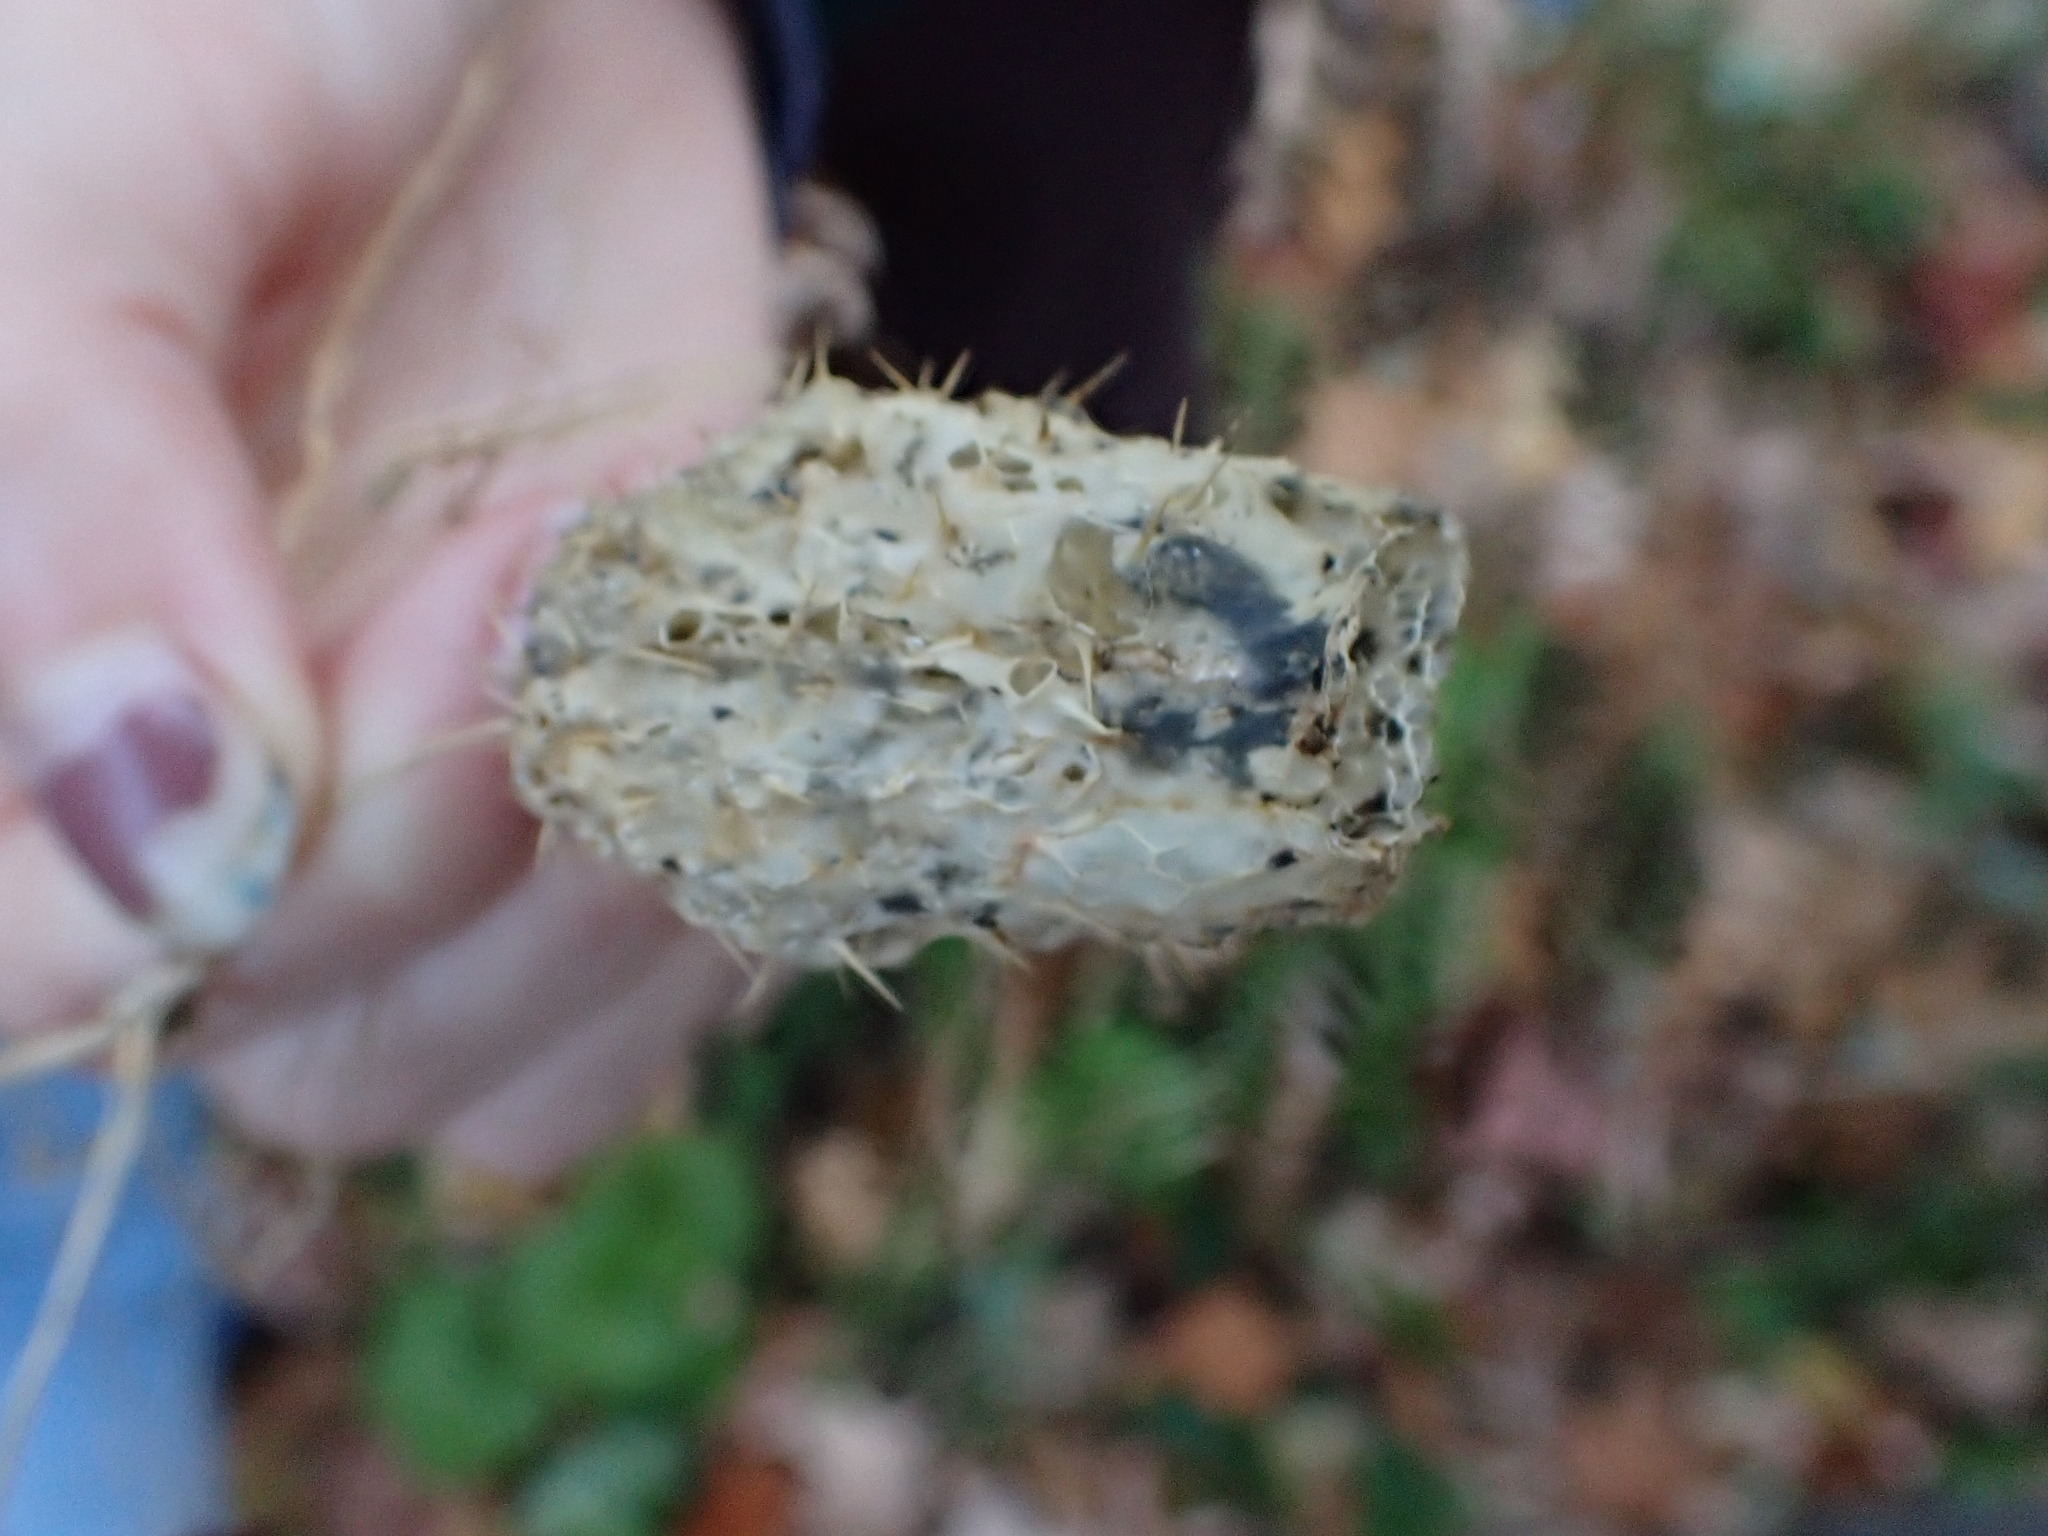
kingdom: Plantae
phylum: Tracheophyta
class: Magnoliopsida
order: Cucurbitales
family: Cucurbitaceae
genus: Echinocystis
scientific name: Echinocystis lobata
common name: Wild cucumber
